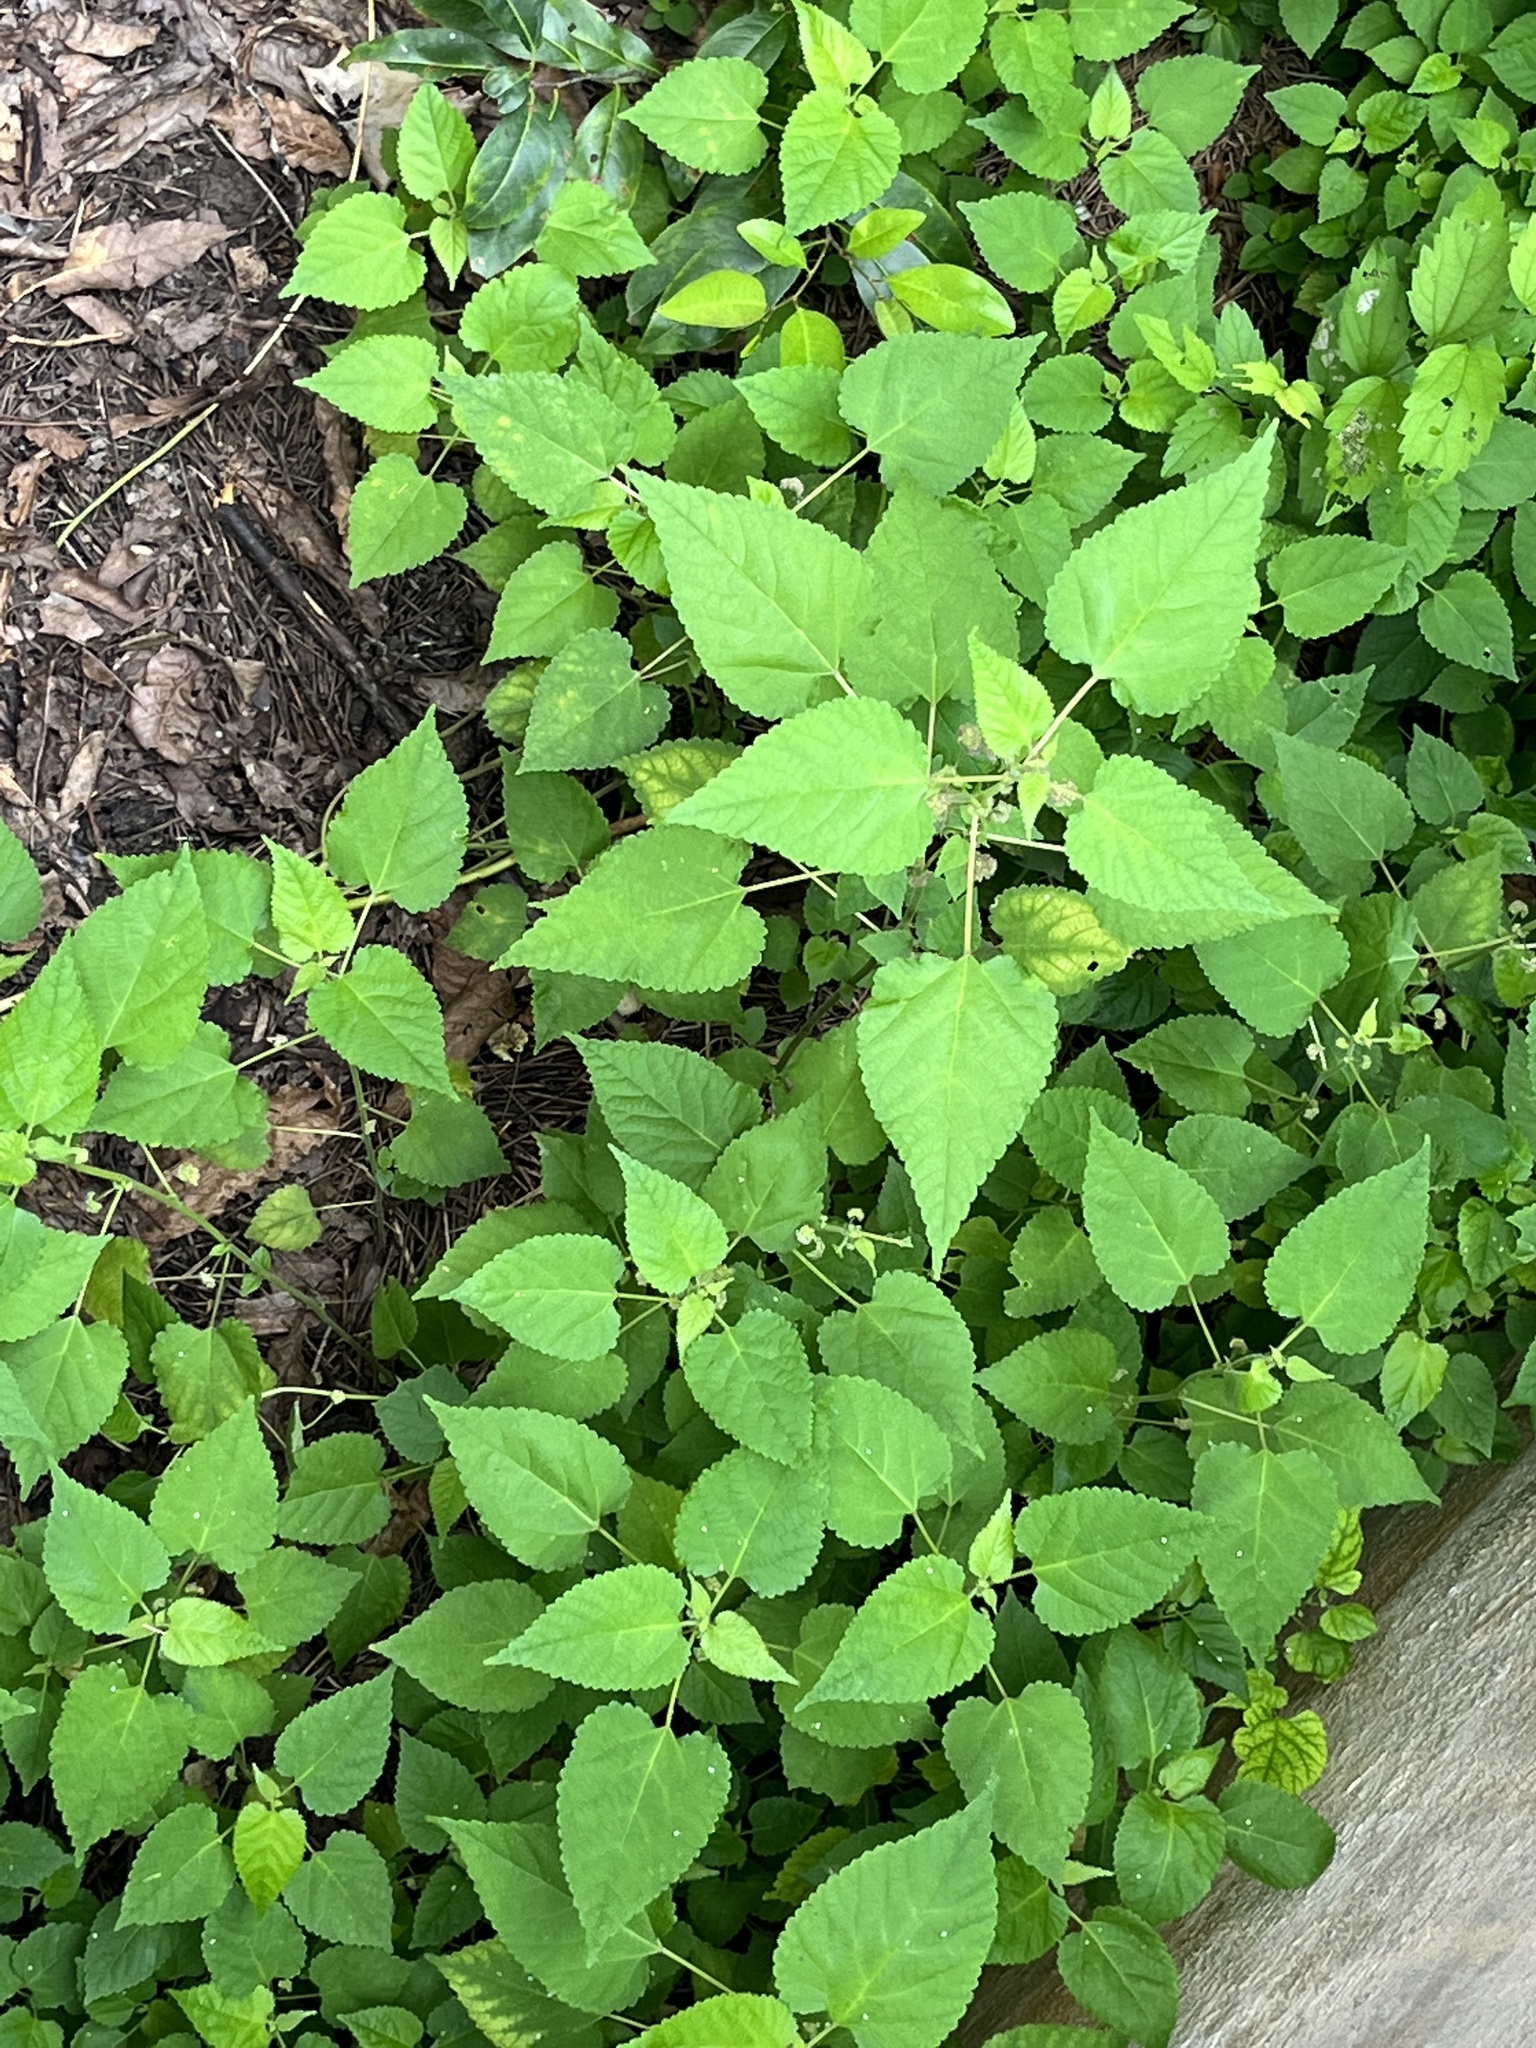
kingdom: Plantae
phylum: Tracheophyta
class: Magnoliopsida
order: Rosales
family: Moraceae
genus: Fatoua
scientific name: Fatoua villosa
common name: Hairy crabweed
